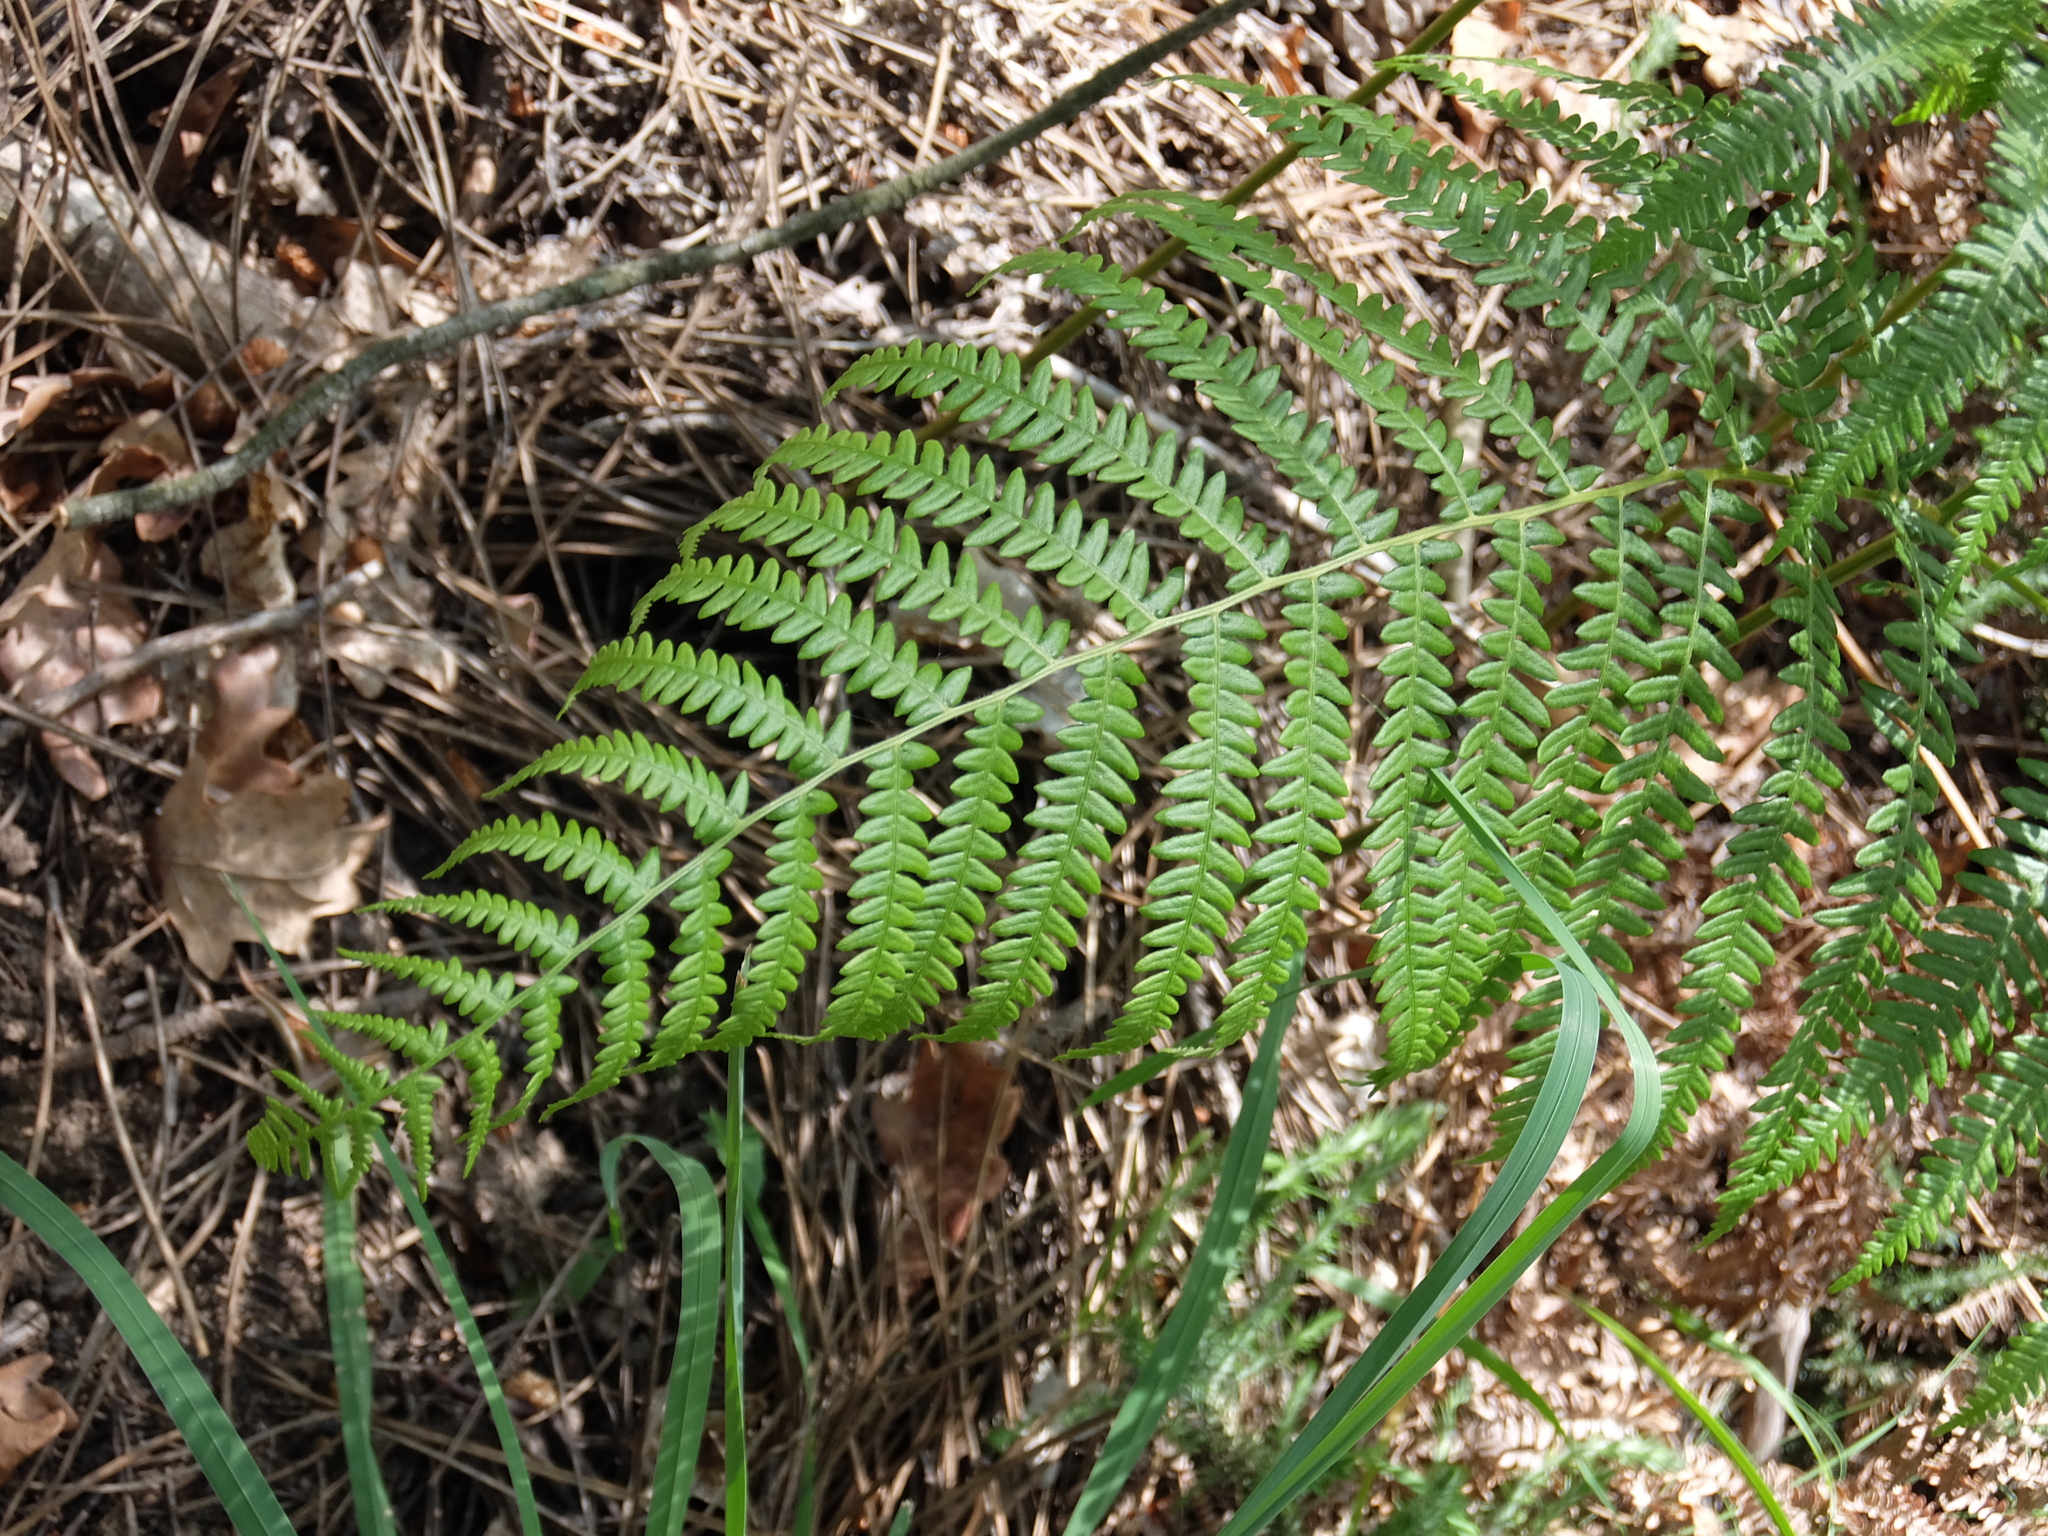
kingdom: Plantae
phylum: Tracheophyta
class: Polypodiopsida
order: Polypodiales
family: Dennstaedtiaceae
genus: Pteridium
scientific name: Pteridium aquilinum
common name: Bracken
